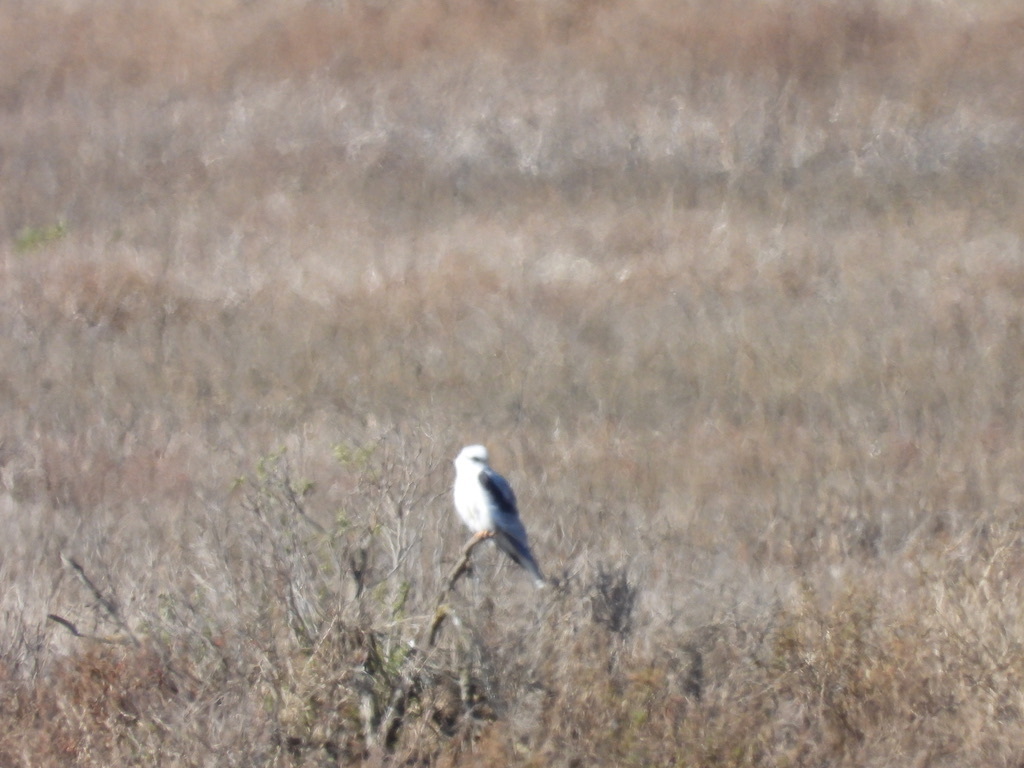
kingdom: Animalia
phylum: Chordata
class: Aves
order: Accipitriformes
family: Accipitridae
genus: Elanus
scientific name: Elanus leucurus
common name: White-tailed kite
